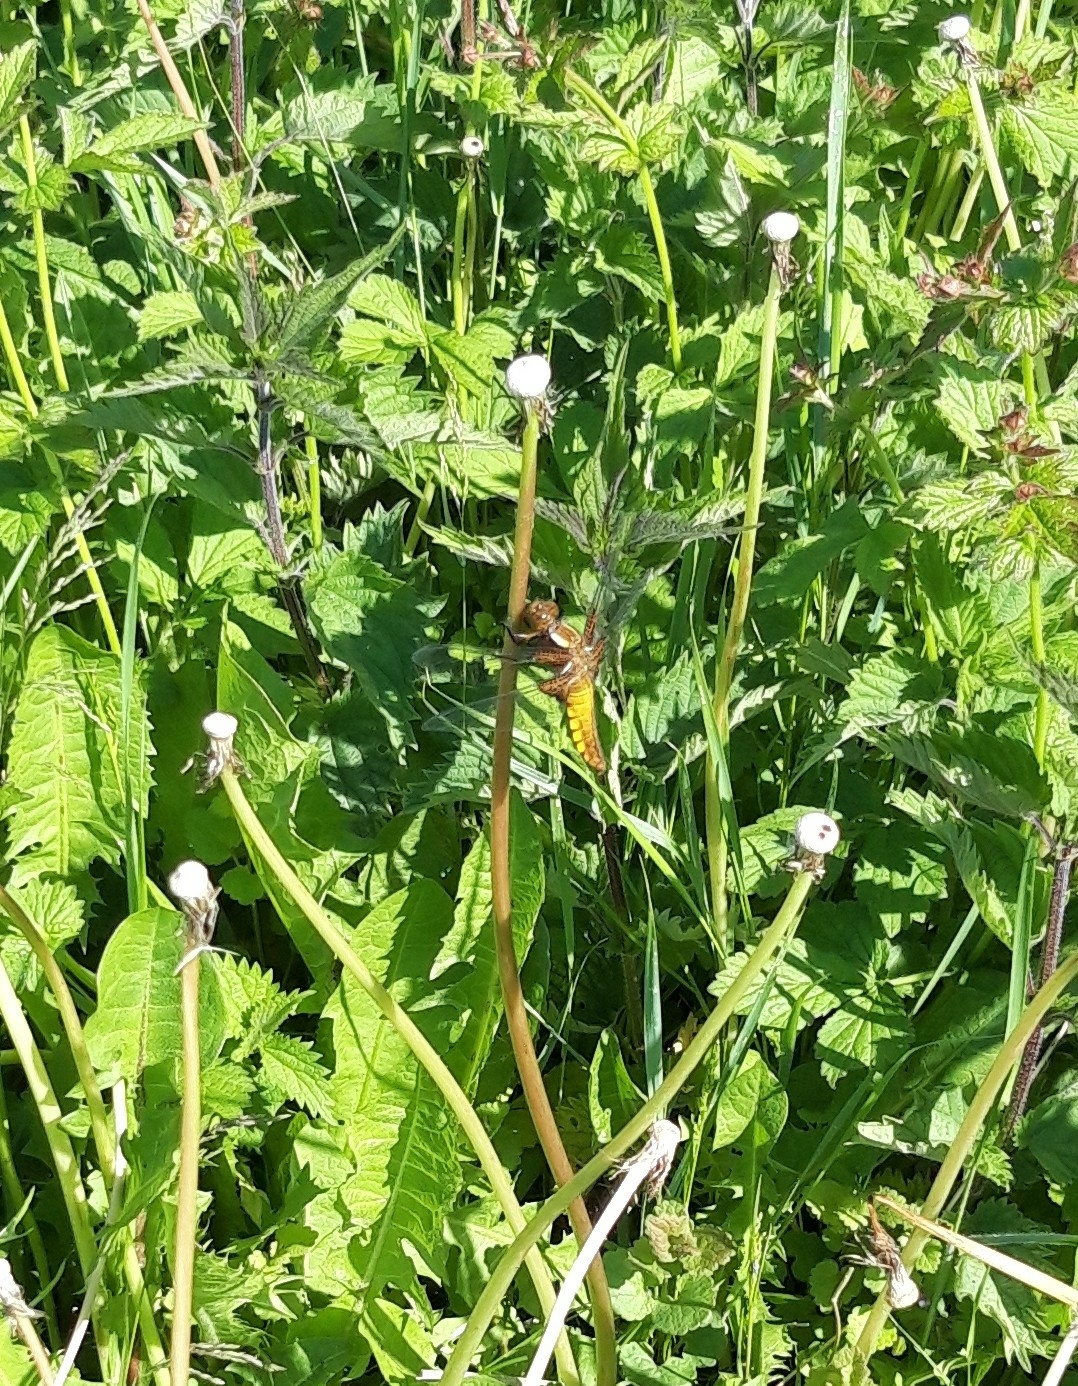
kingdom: Animalia
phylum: Arthropoda
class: Insecta
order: Odonata
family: Libellulidae
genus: Libellula
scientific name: Libellula depressa
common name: Broad-bodied chaser
